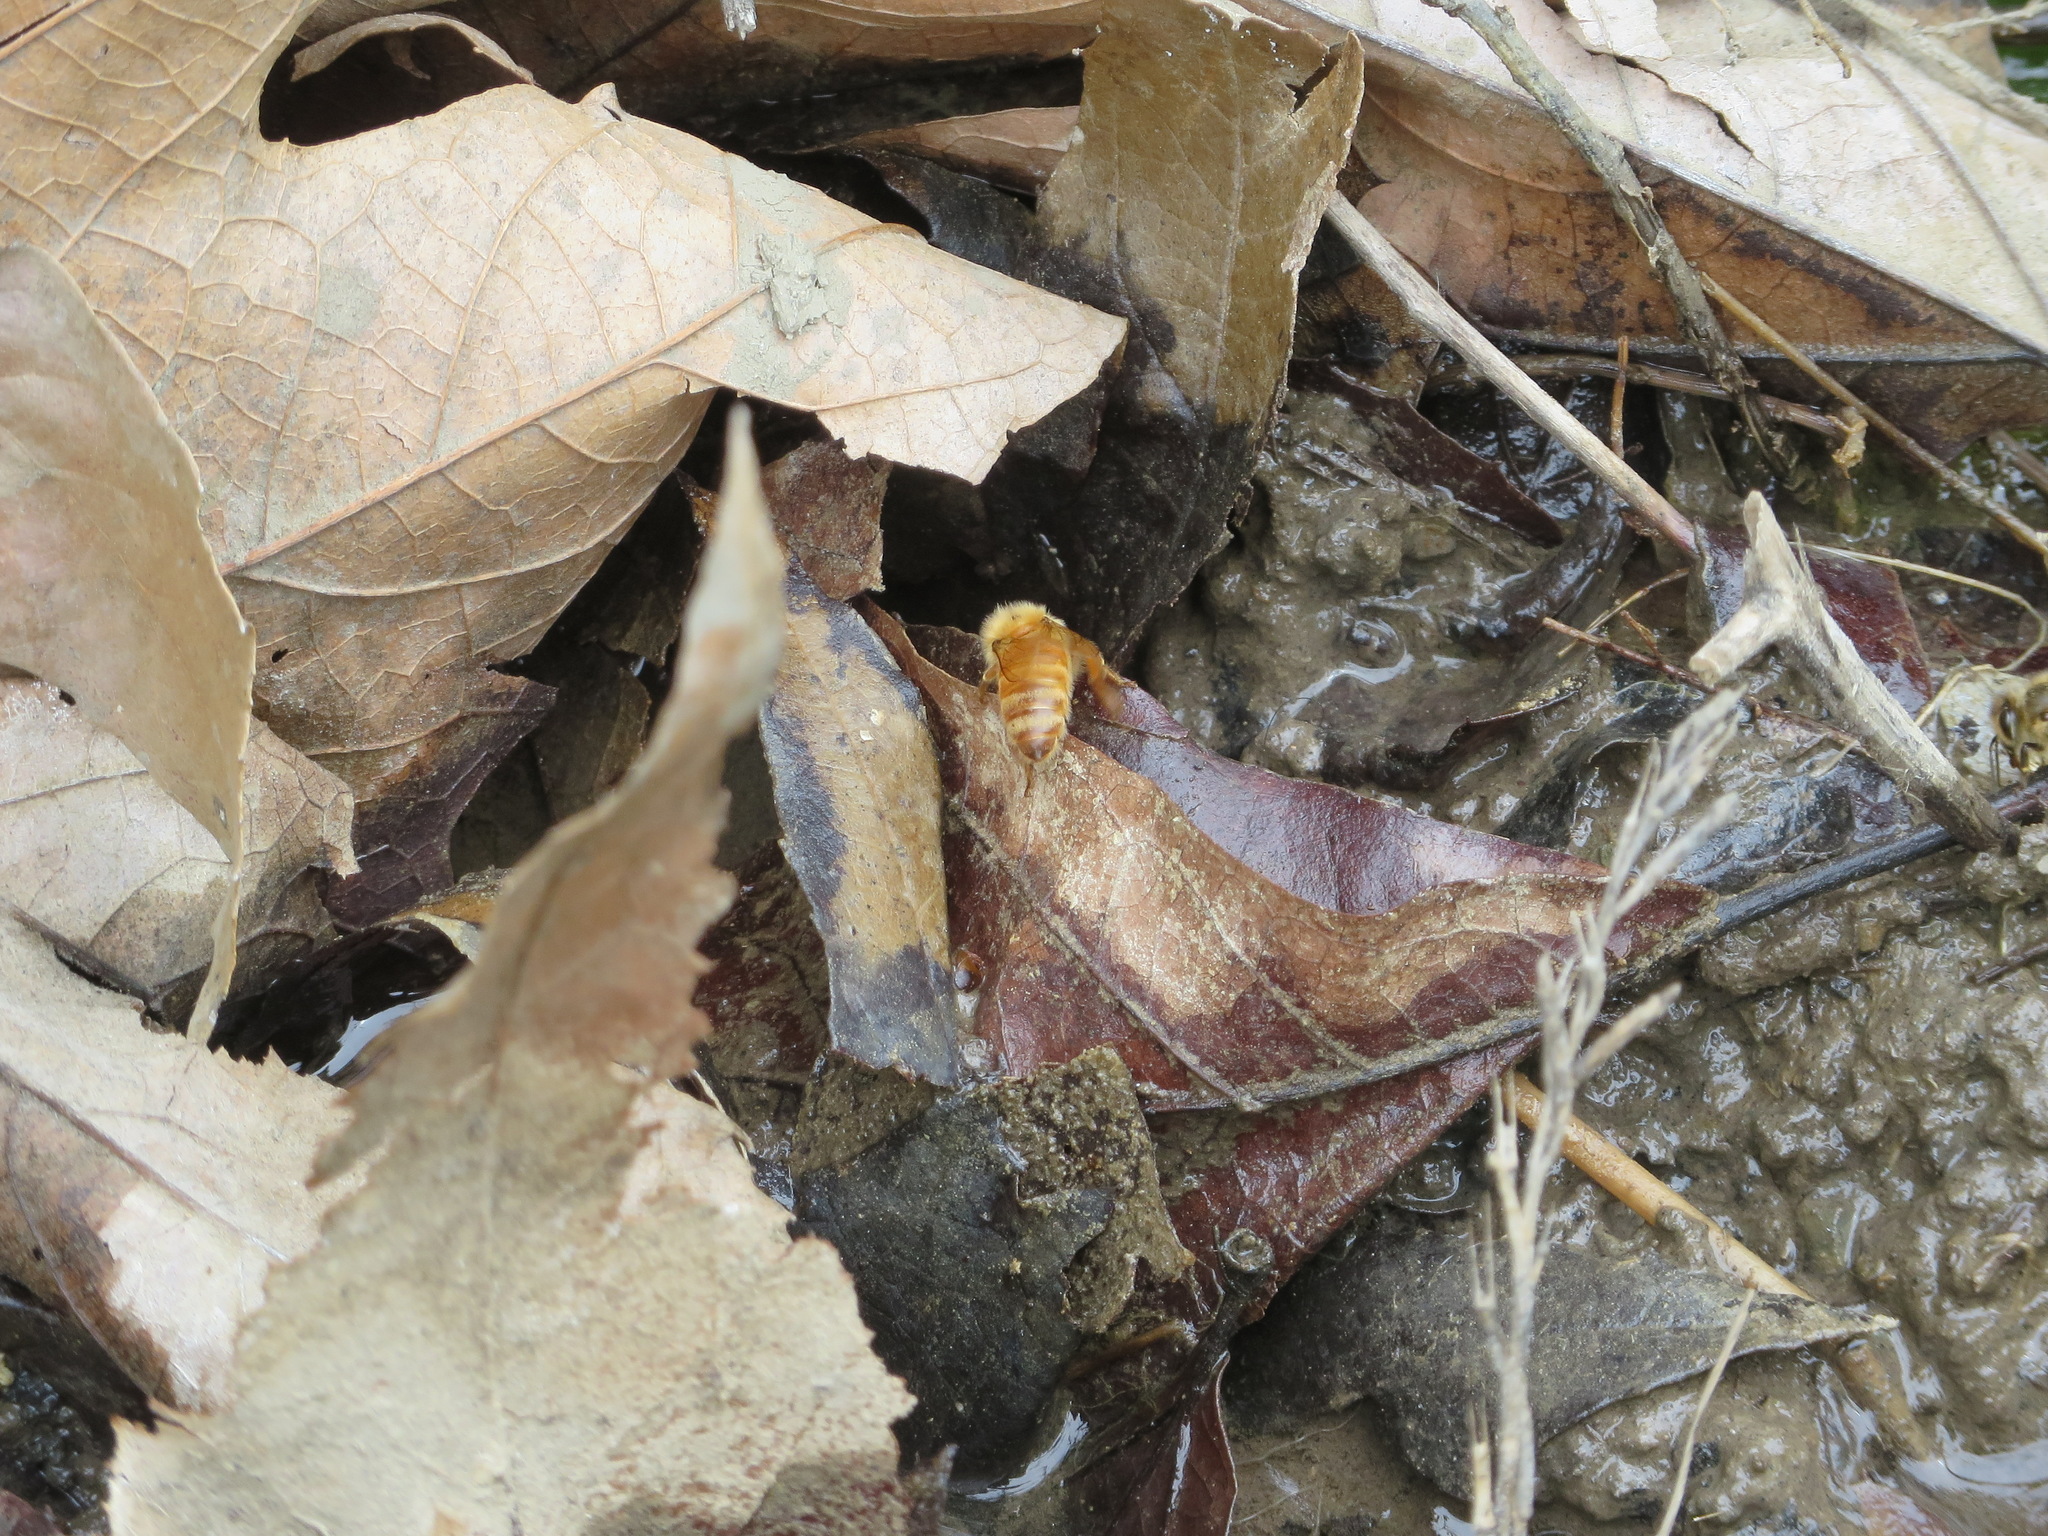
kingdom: Animalia
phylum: Arthropoda
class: Insecta
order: Hymenoptera
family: Apidae
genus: Apis
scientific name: Apis mellifera
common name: Honey bee
